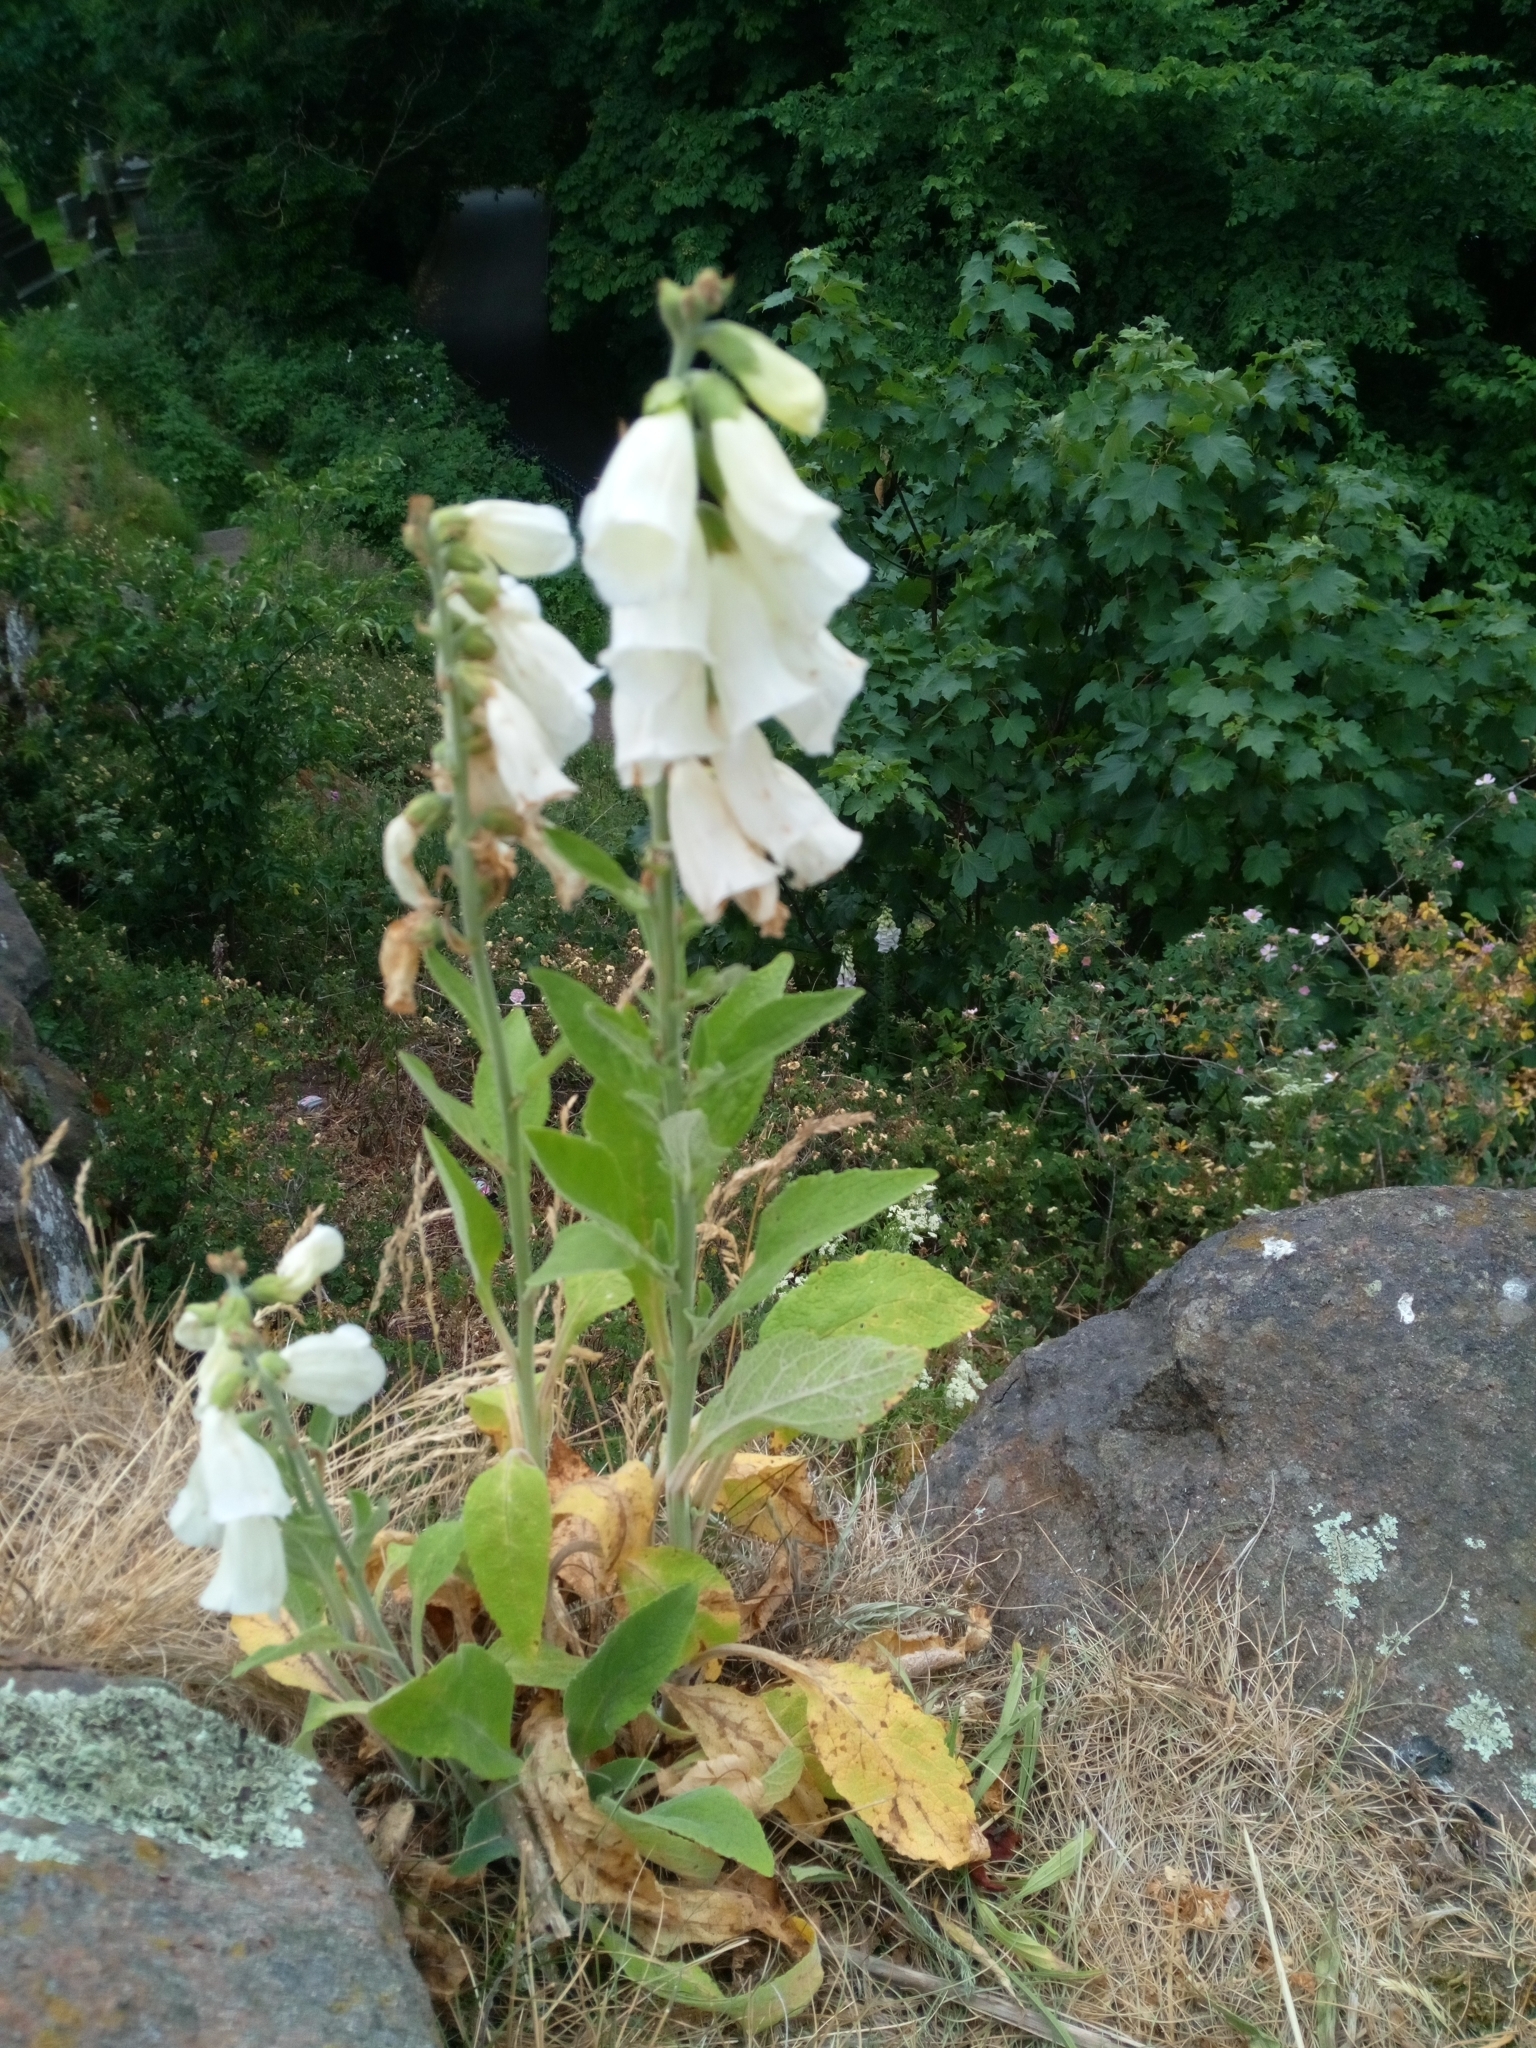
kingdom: Plantae
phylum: Tracheophyta
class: Magnoliopsida
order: Lamiales
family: Plantaginaceae
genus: Digitalis
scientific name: Digitalis purpurea
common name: Foxglove
